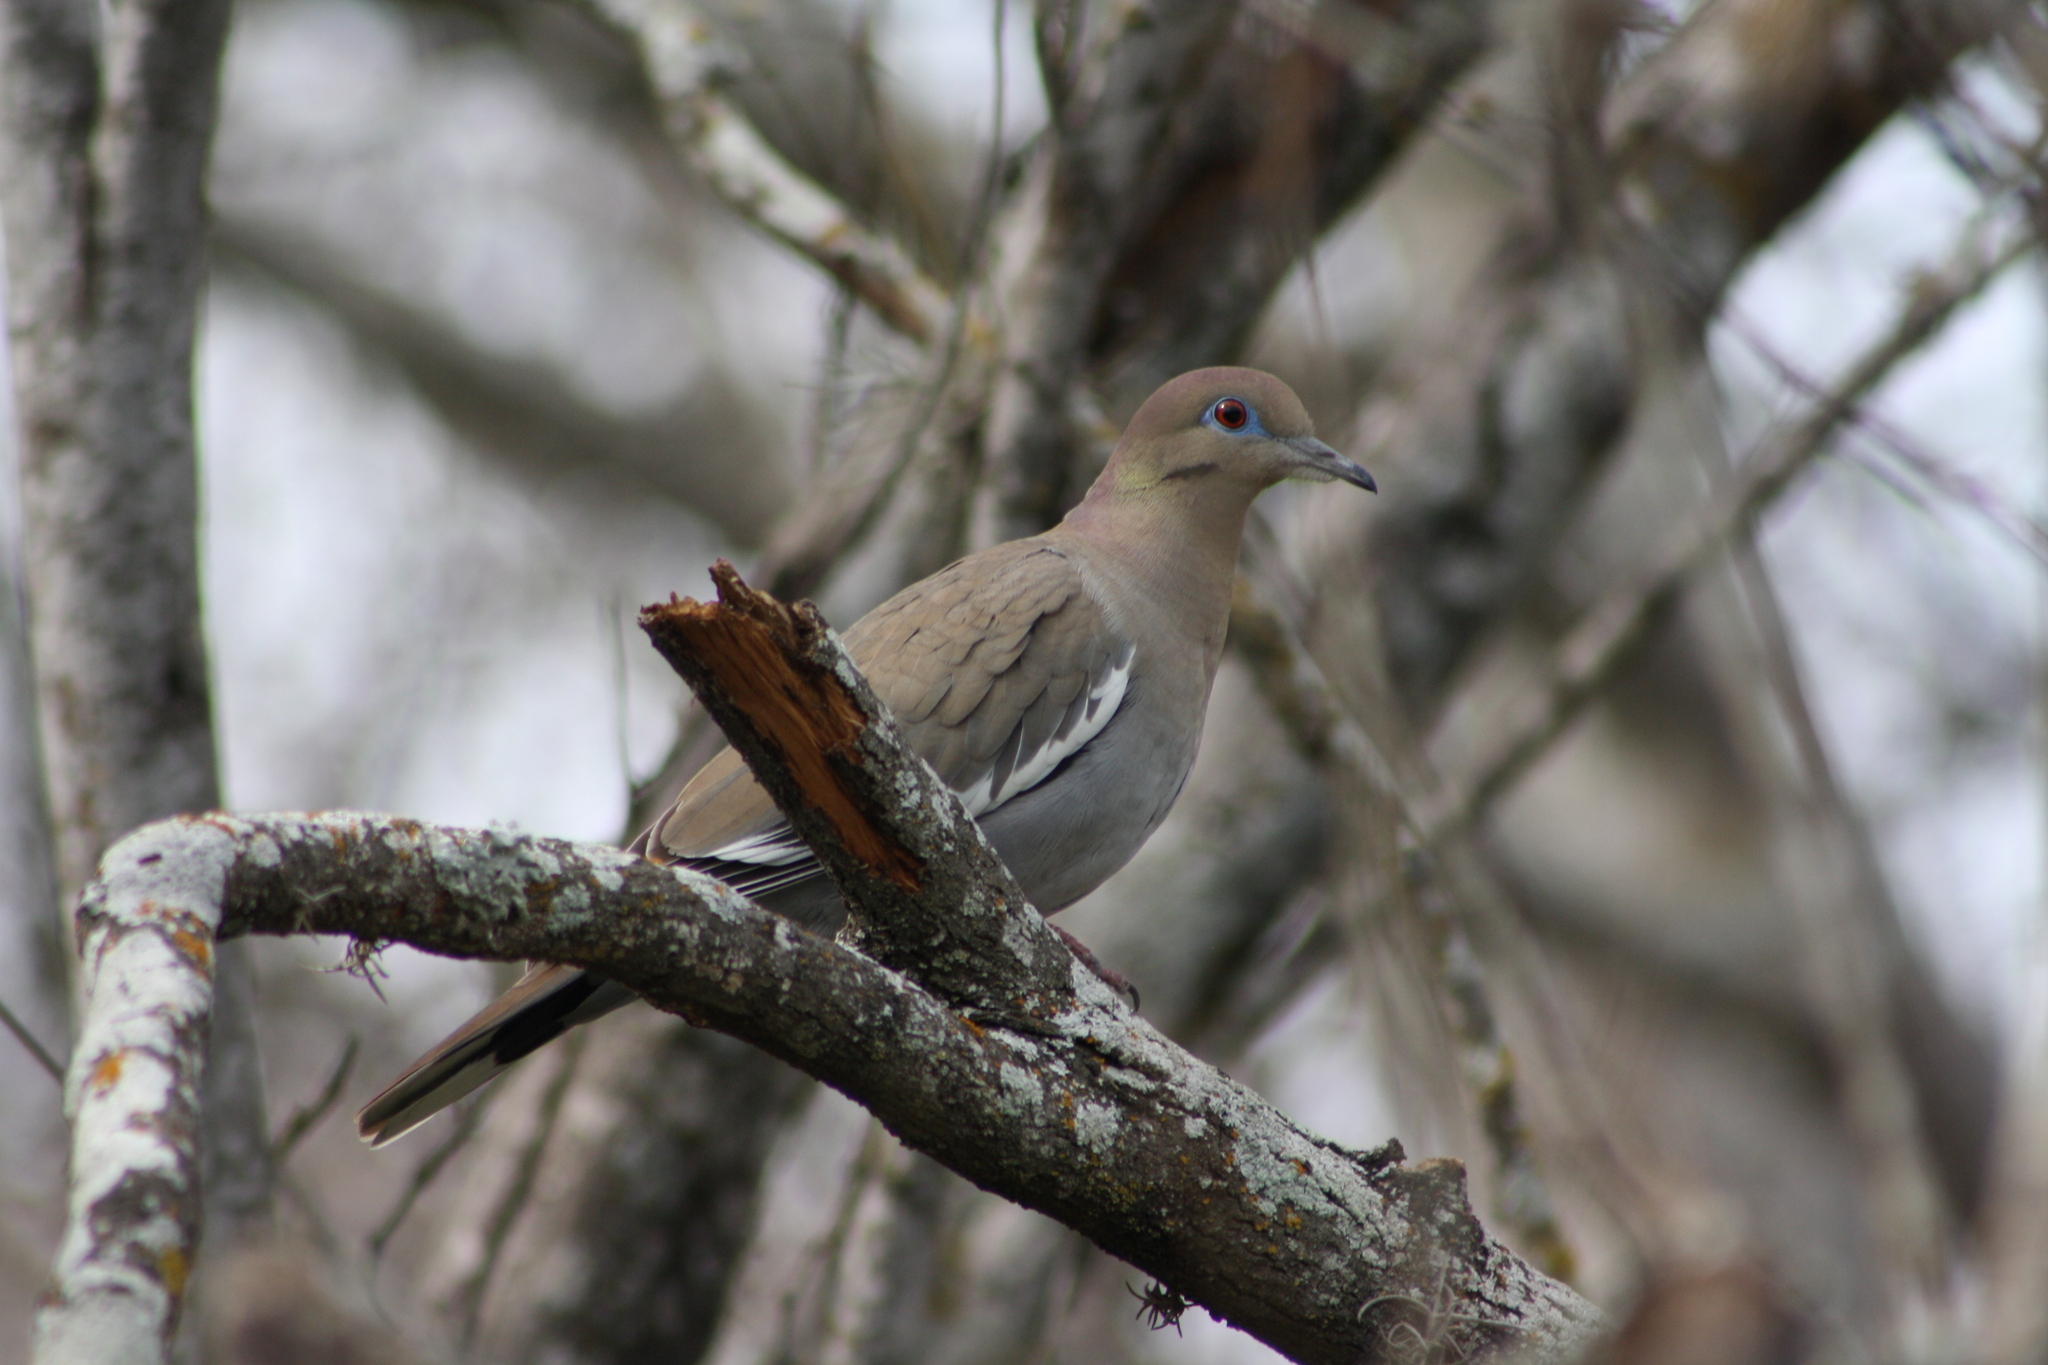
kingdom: Animalia
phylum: Chordata
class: Aves
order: Columbiformes
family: Columbidae
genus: Zenaida
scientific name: Zenaida asiatica
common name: White-winged dove
